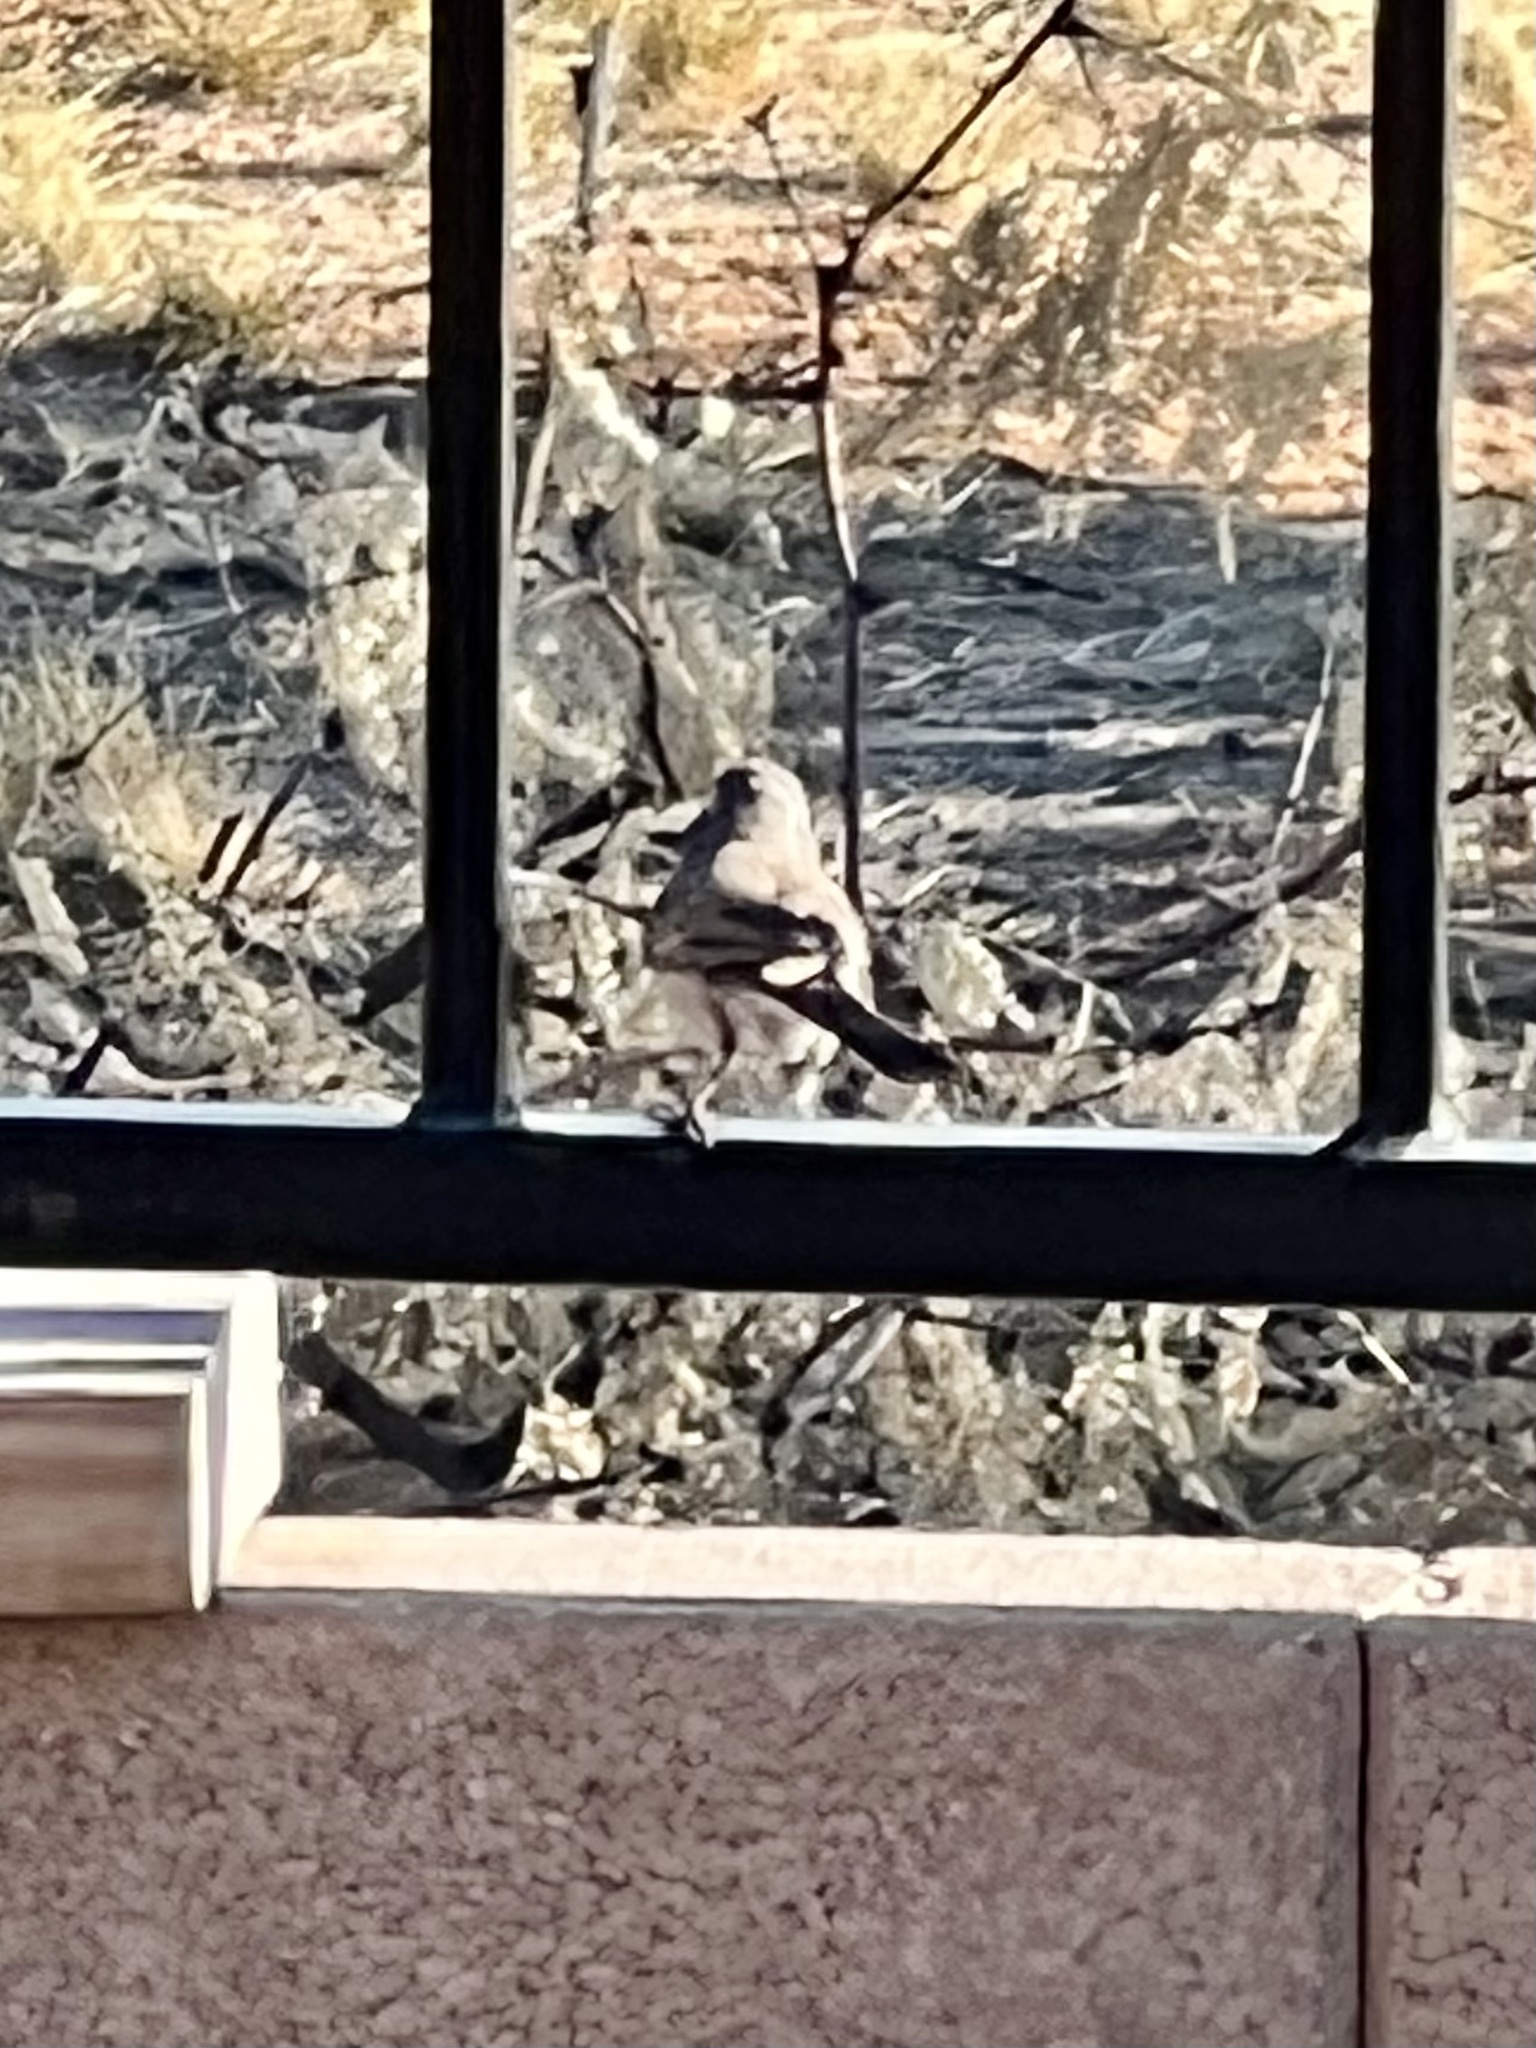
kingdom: Animalia
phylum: Chordata
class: Aves
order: Passeriformes
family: Passerellidae
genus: Amphispiza
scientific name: Amphispiza bilineata
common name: Black-throated sparrow
